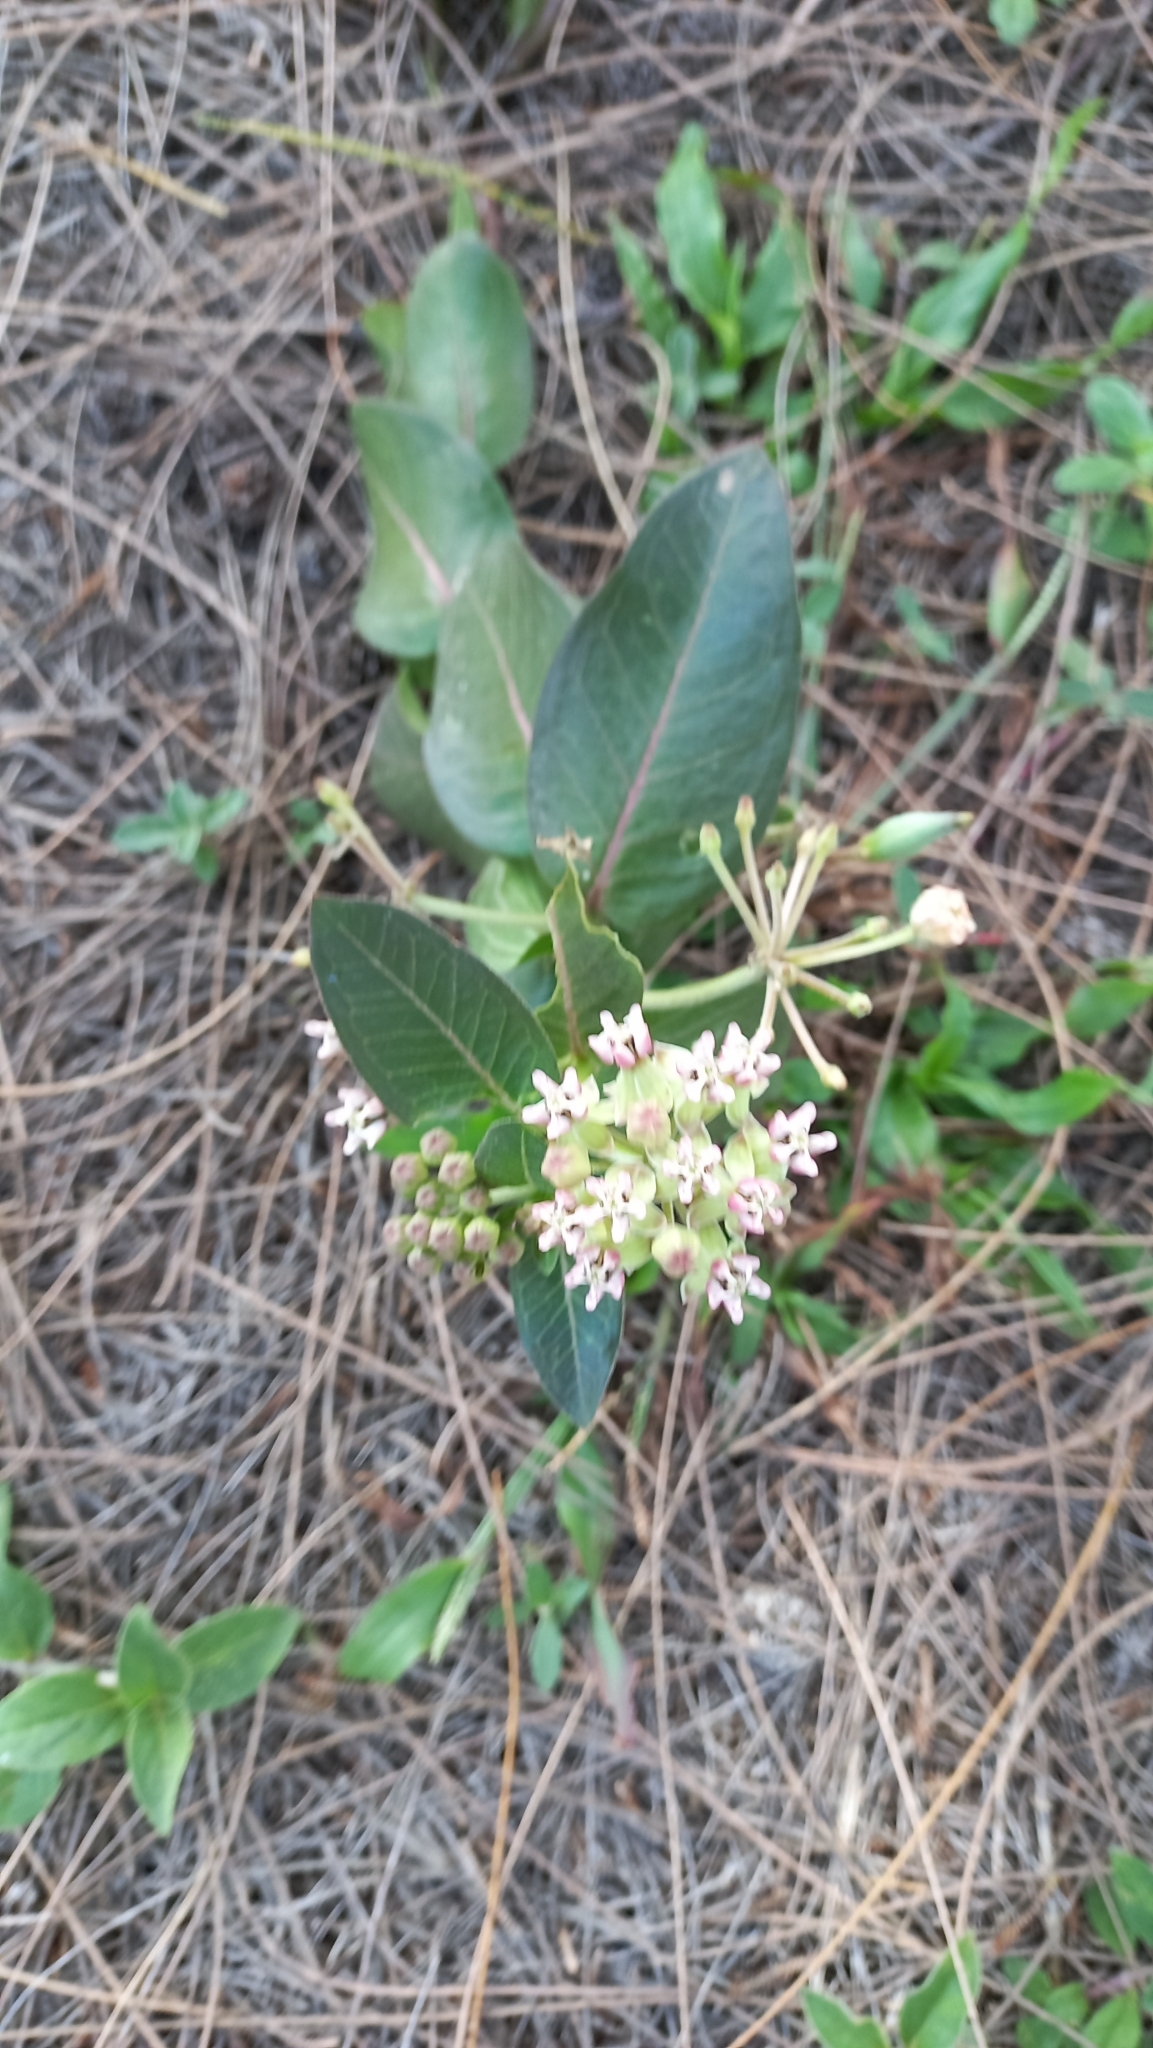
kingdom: Plantae
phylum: Tracheophyta
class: Magnoliopsida
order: Gentianales
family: Apocynaceae
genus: Asclepias
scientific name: Asclepias mellodora
